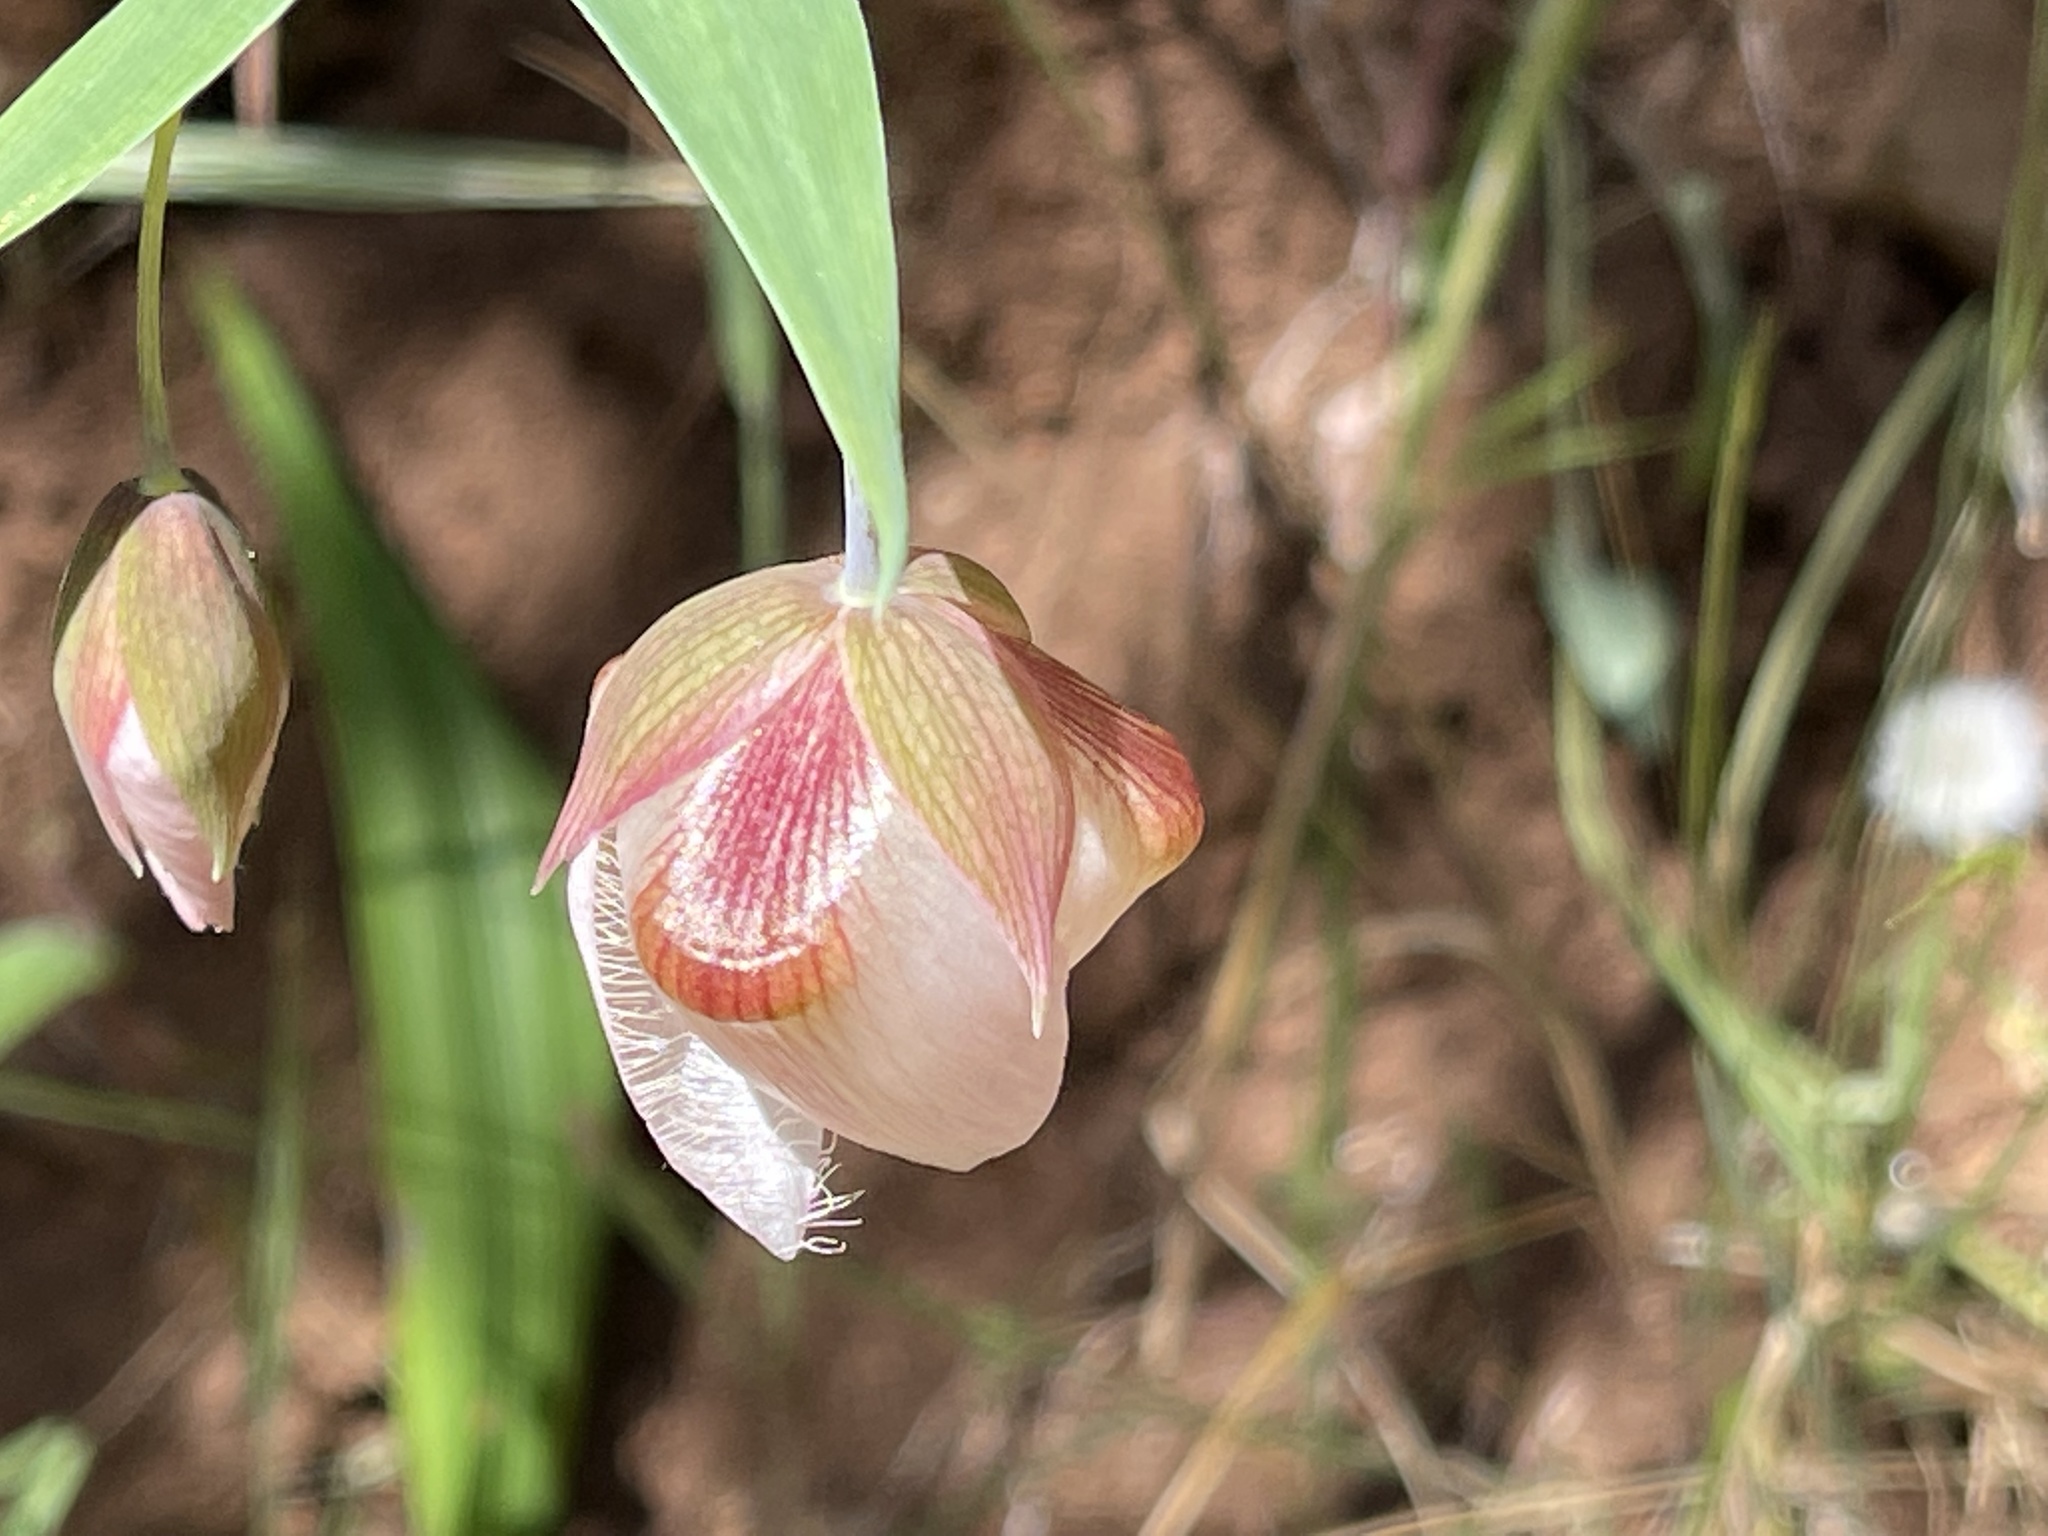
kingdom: Plantae
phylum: Tracheophyta
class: Liliopsida
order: Liliales
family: Liliaceae
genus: Calochortus
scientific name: Calochortus albus
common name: Fairy-lantern
